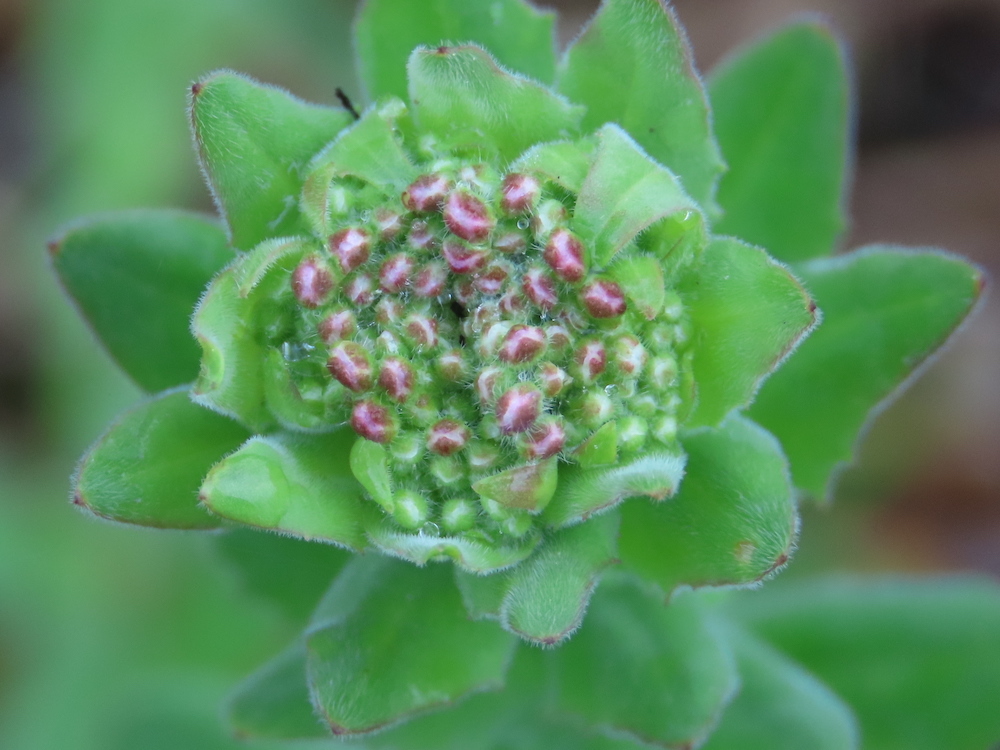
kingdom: Plantae
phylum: Tracheophyta
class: Magnoliopsida
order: Brassicales
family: Brassicaceae
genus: Lepidium
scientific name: Lepidium campestre
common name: Field pepperwort
